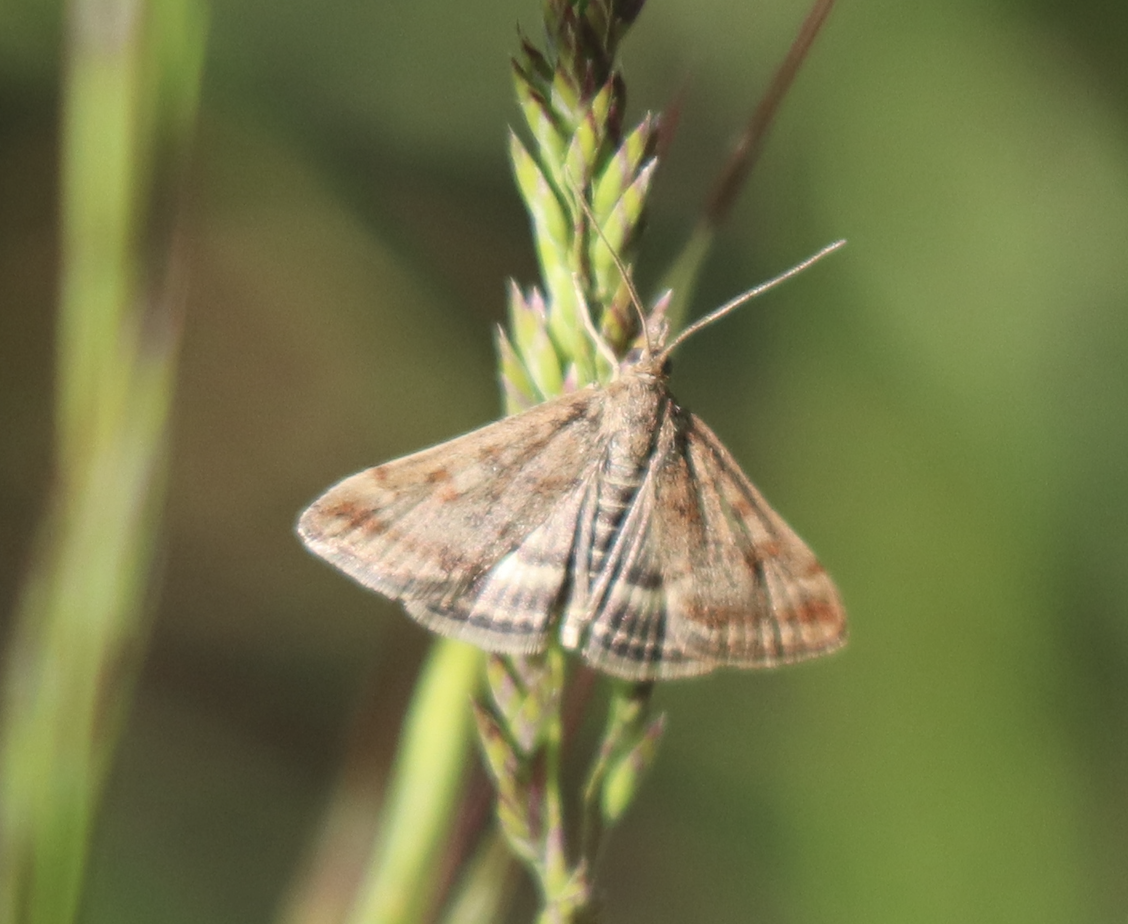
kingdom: Animalia
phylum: Arthropoda
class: Insecta
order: Lepidoptera
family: Crambidae
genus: Pyrausta
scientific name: Pyrausta despicata
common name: Straw-barred pearl
